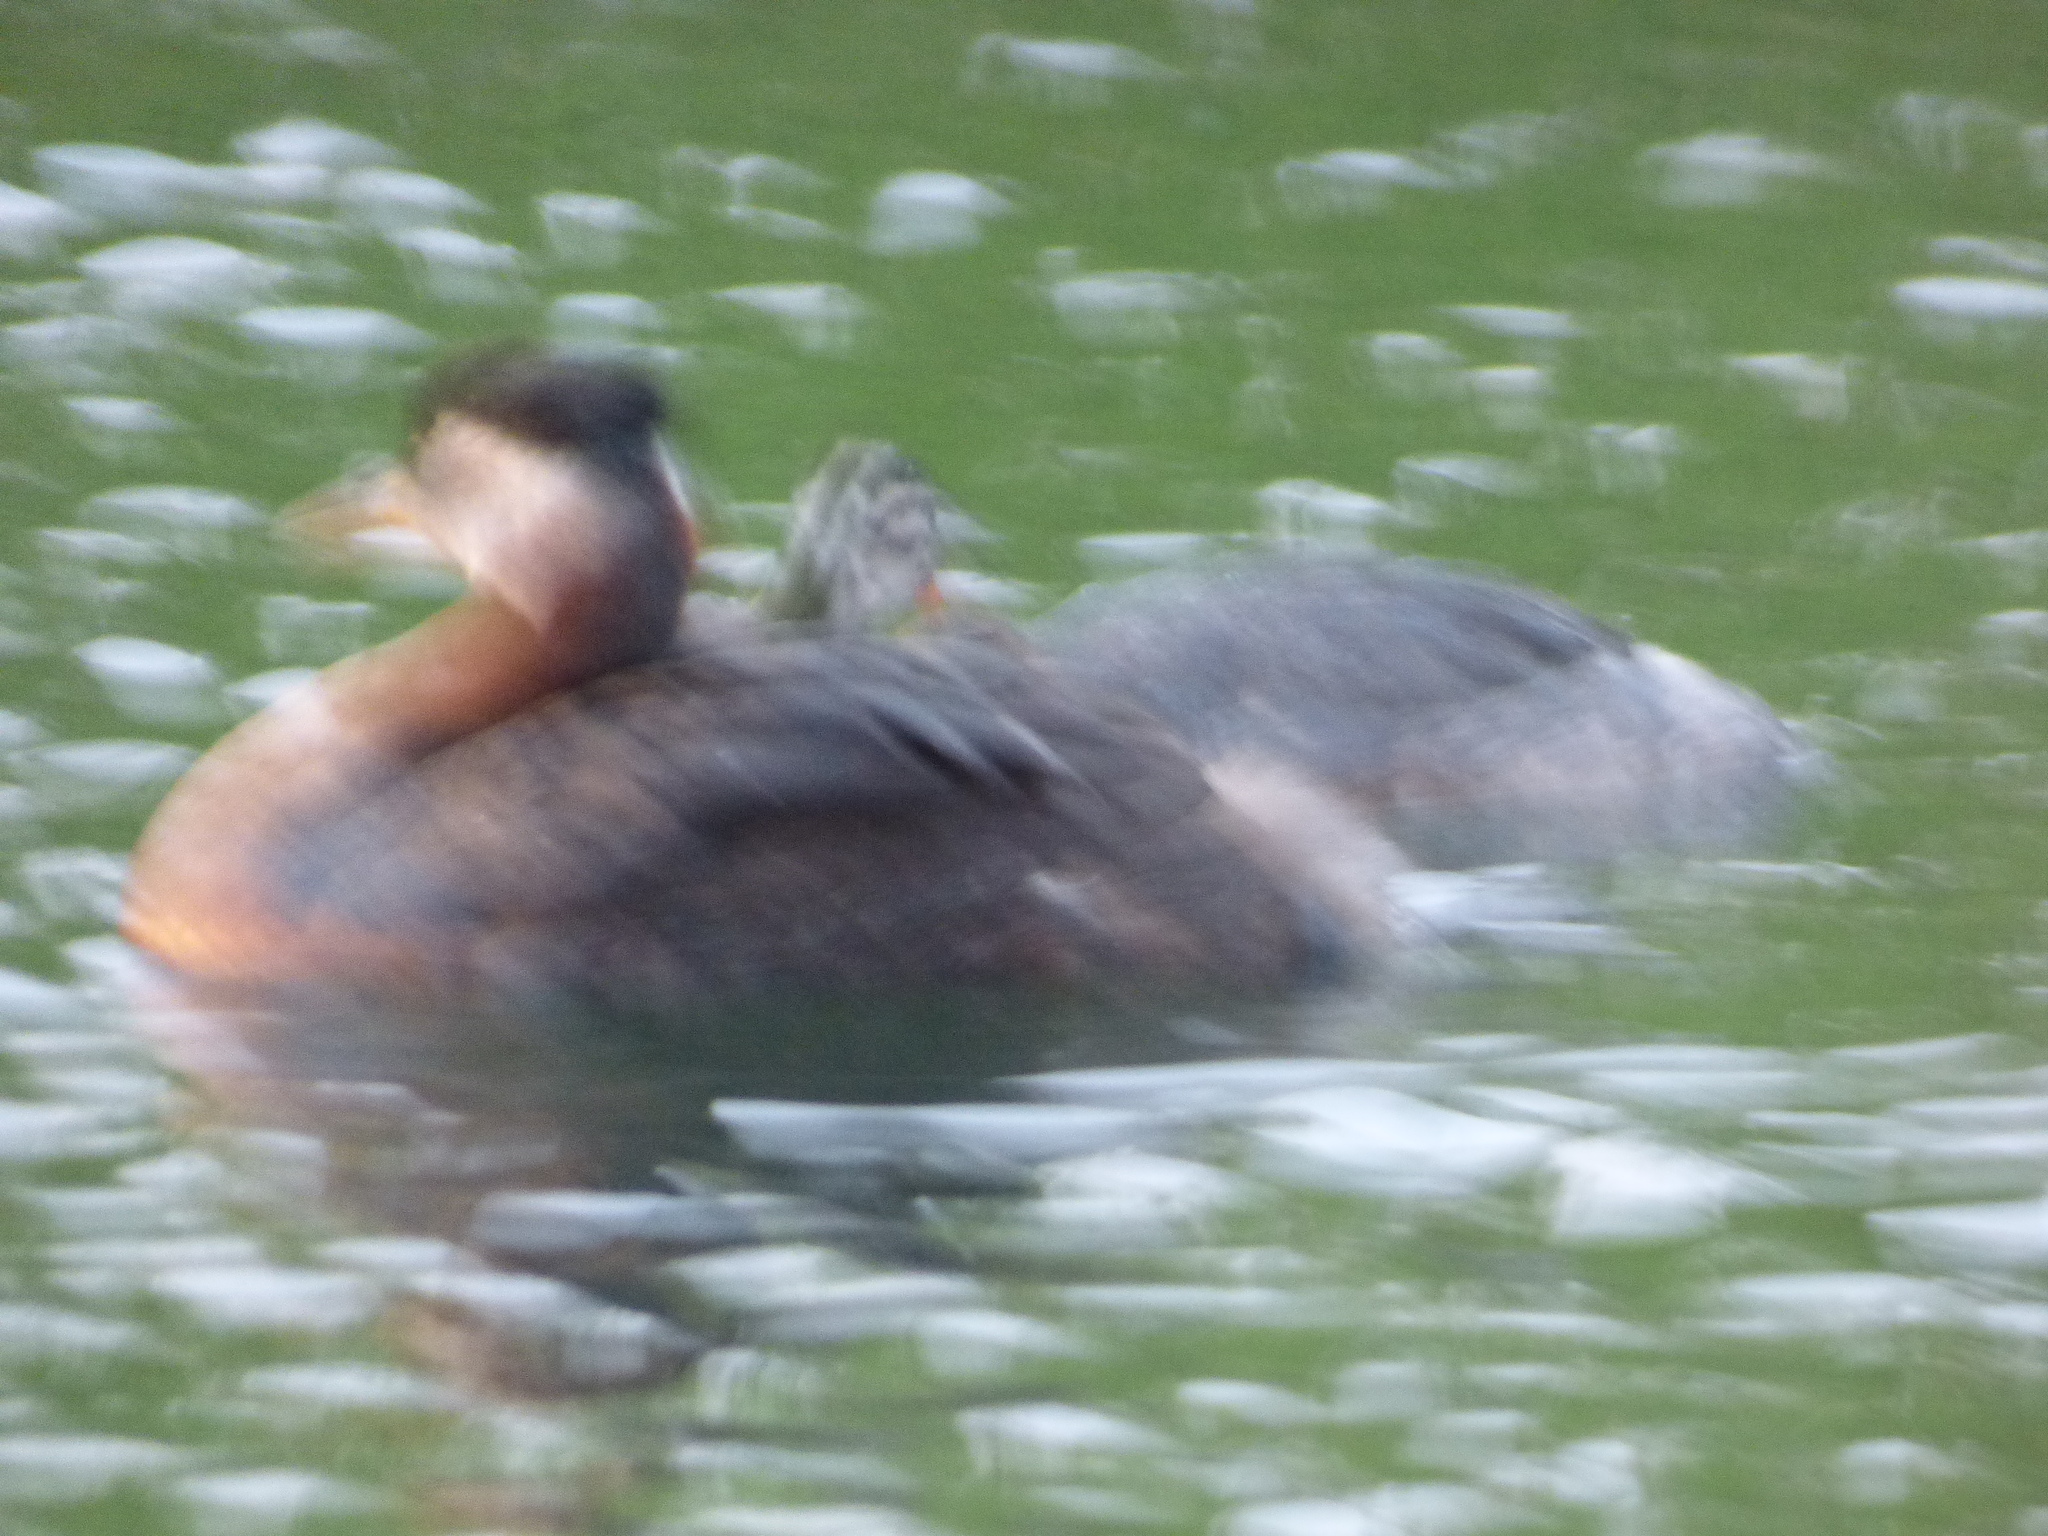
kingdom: Animalia
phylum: Chordata
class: Aves
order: Podicipediformes
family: Podicipedidae
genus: Podiceps
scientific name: Podiceps grisegena
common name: Red-necked grebe
